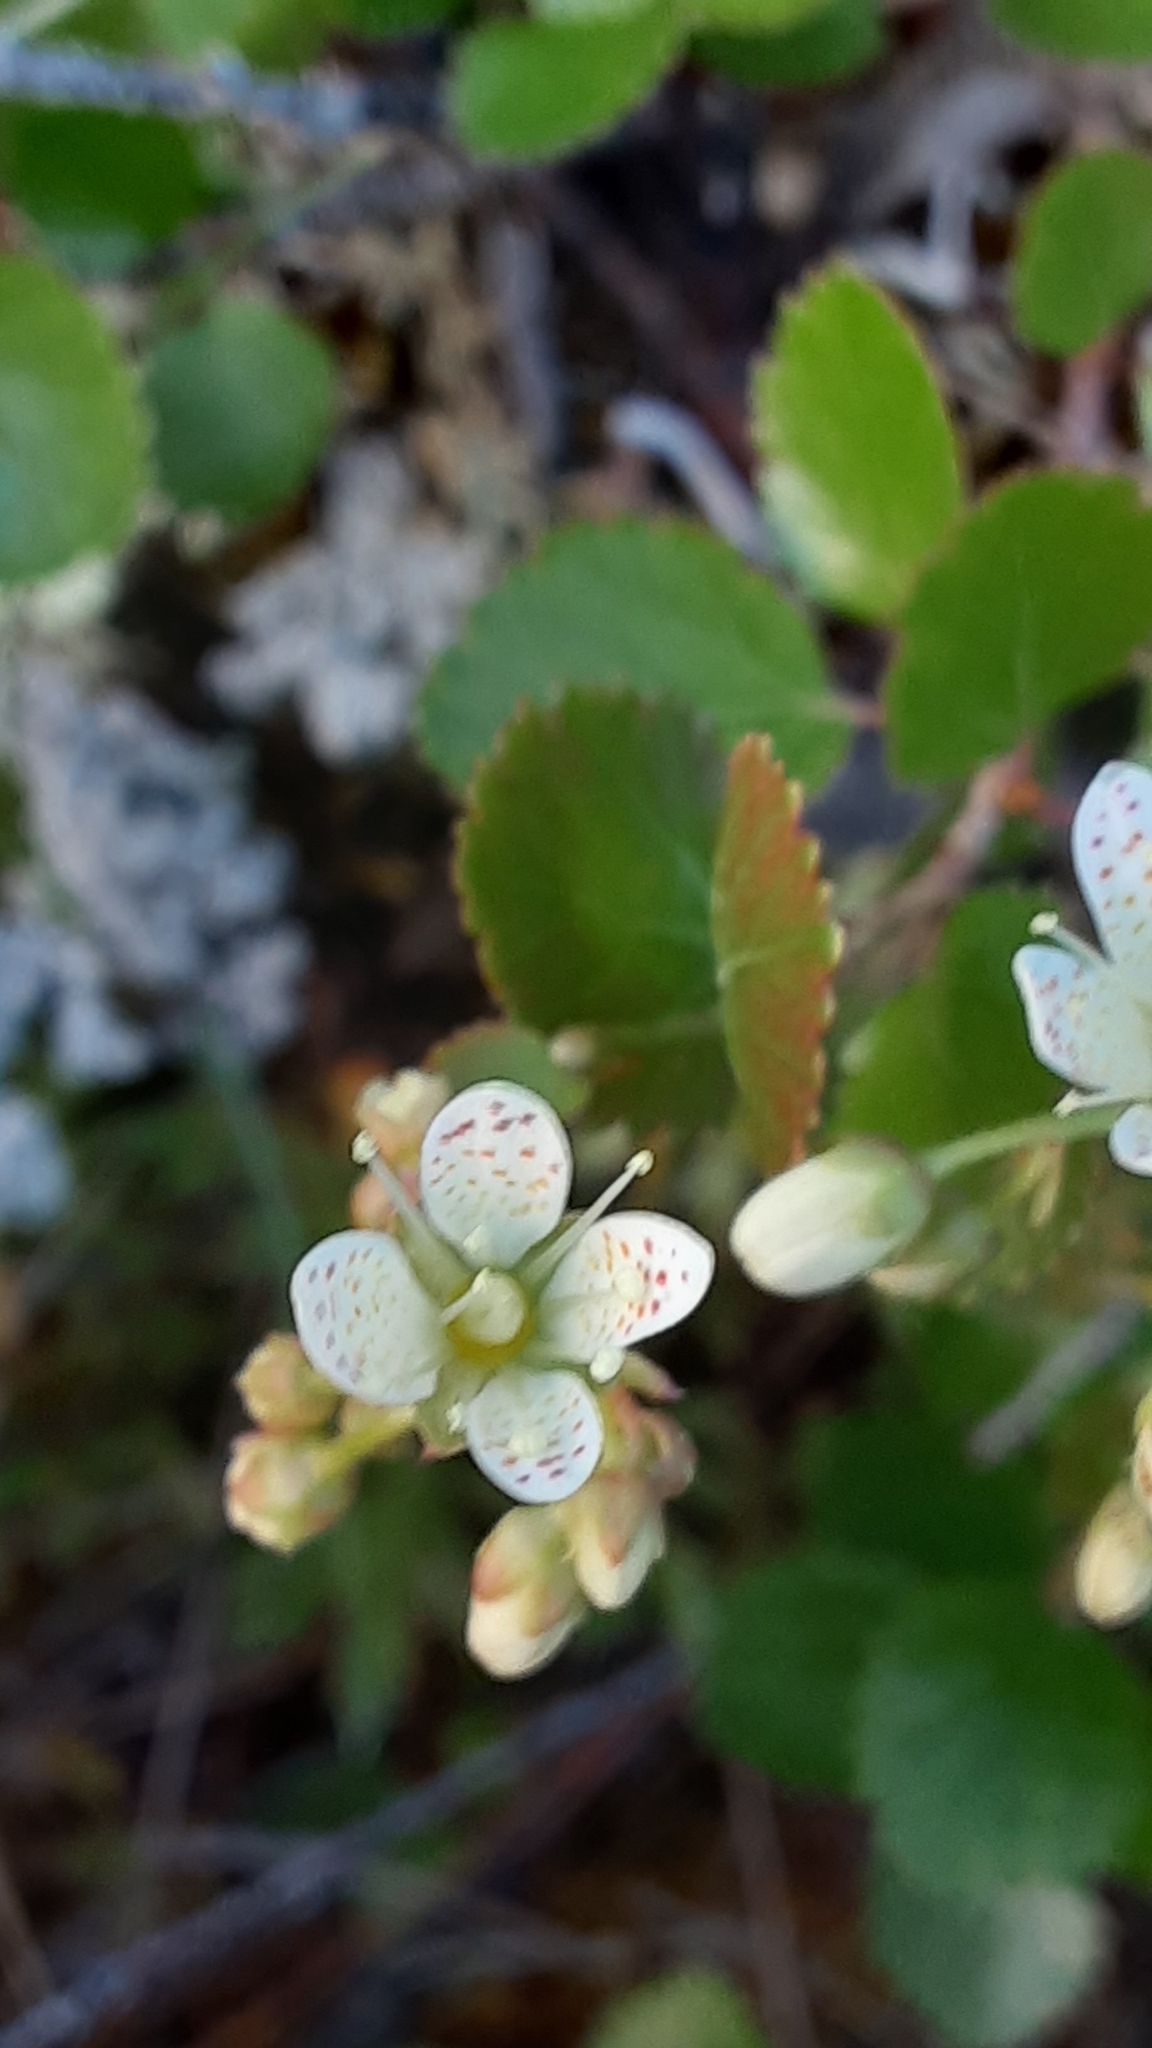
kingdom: Plantae
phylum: Tracheophyta
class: Magnoliopsida
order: Saxifragales
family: Saxifragaceae
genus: Saxifraga
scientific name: Saxifraga tricuspidata
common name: Prickly saxifrage
